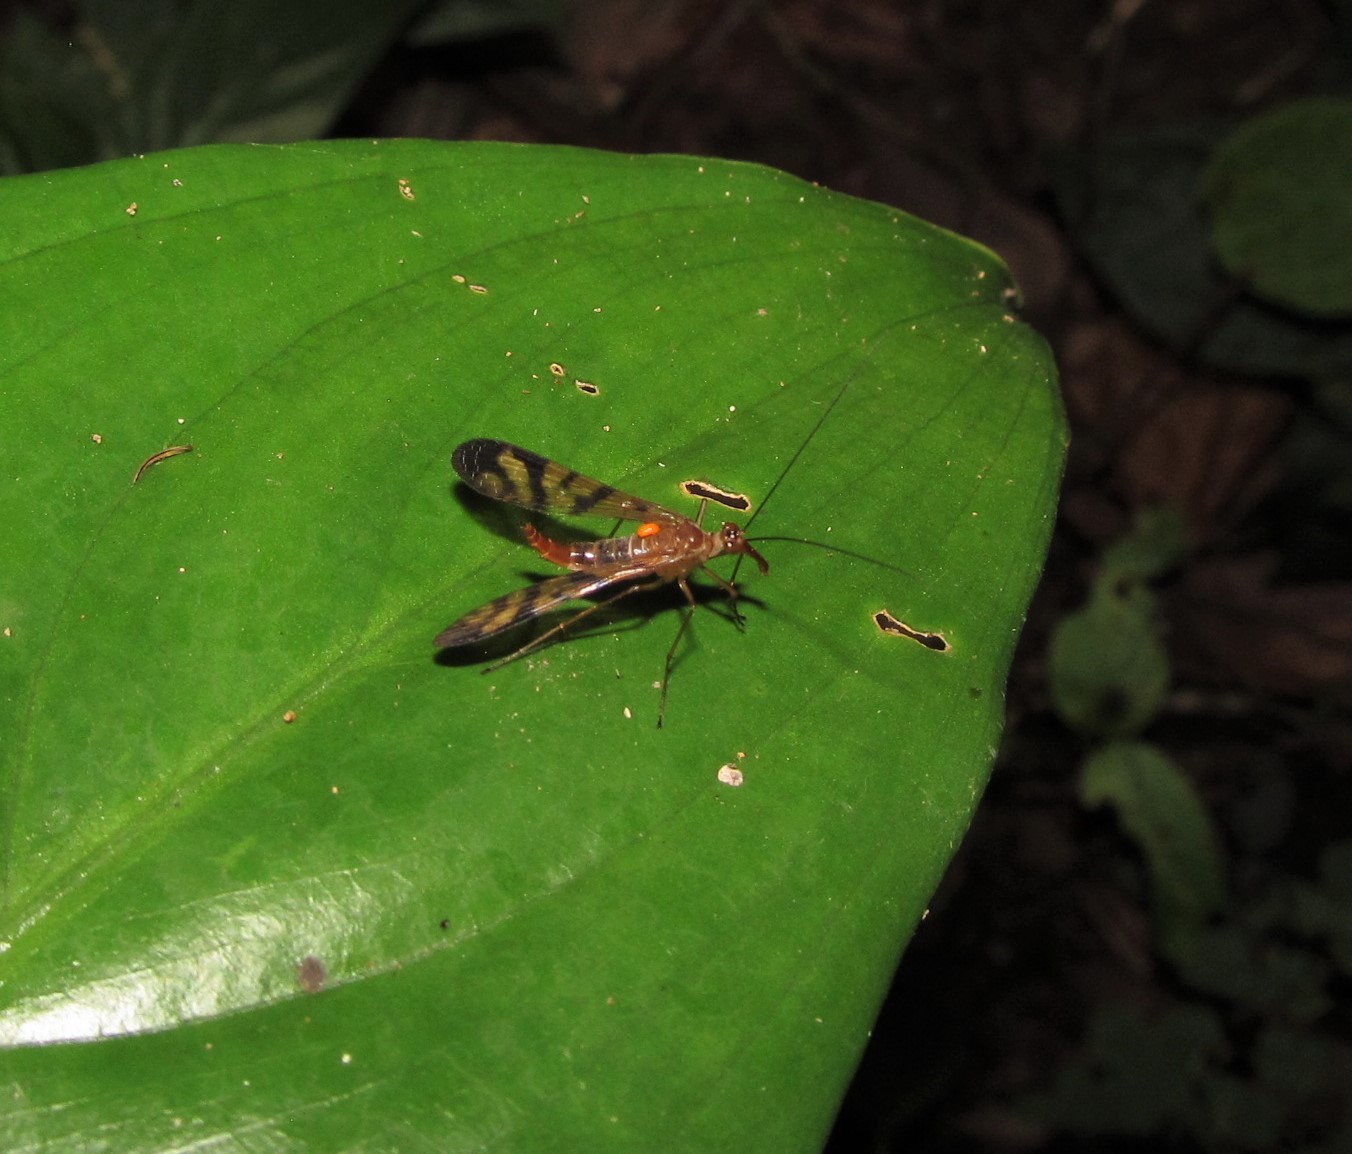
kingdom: Animalia
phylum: Arthropoda
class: Insecta
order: Mecoptera
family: Panorpidae
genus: Neopanorpa
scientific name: Neopanorpa vietnamensis
